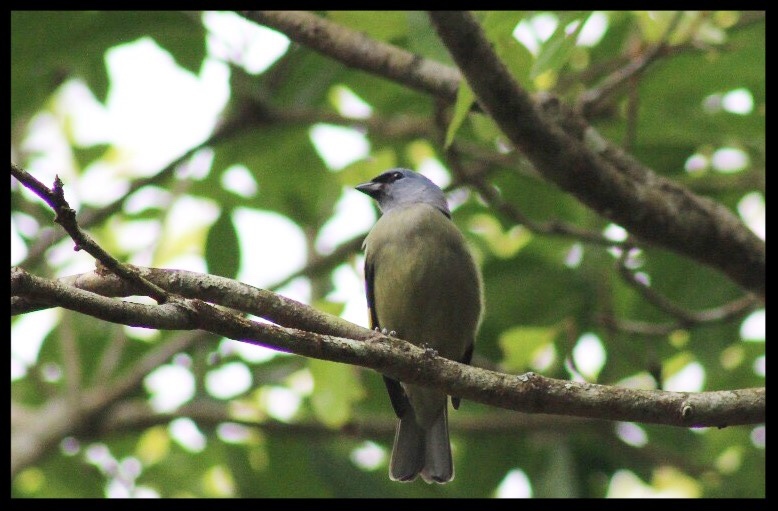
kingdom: Animalia
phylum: Chordata
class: Aves
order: Passeriformes
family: Thraupidae
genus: Thraupis
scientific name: Thraupis abbas
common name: Yellow-winged tanager
